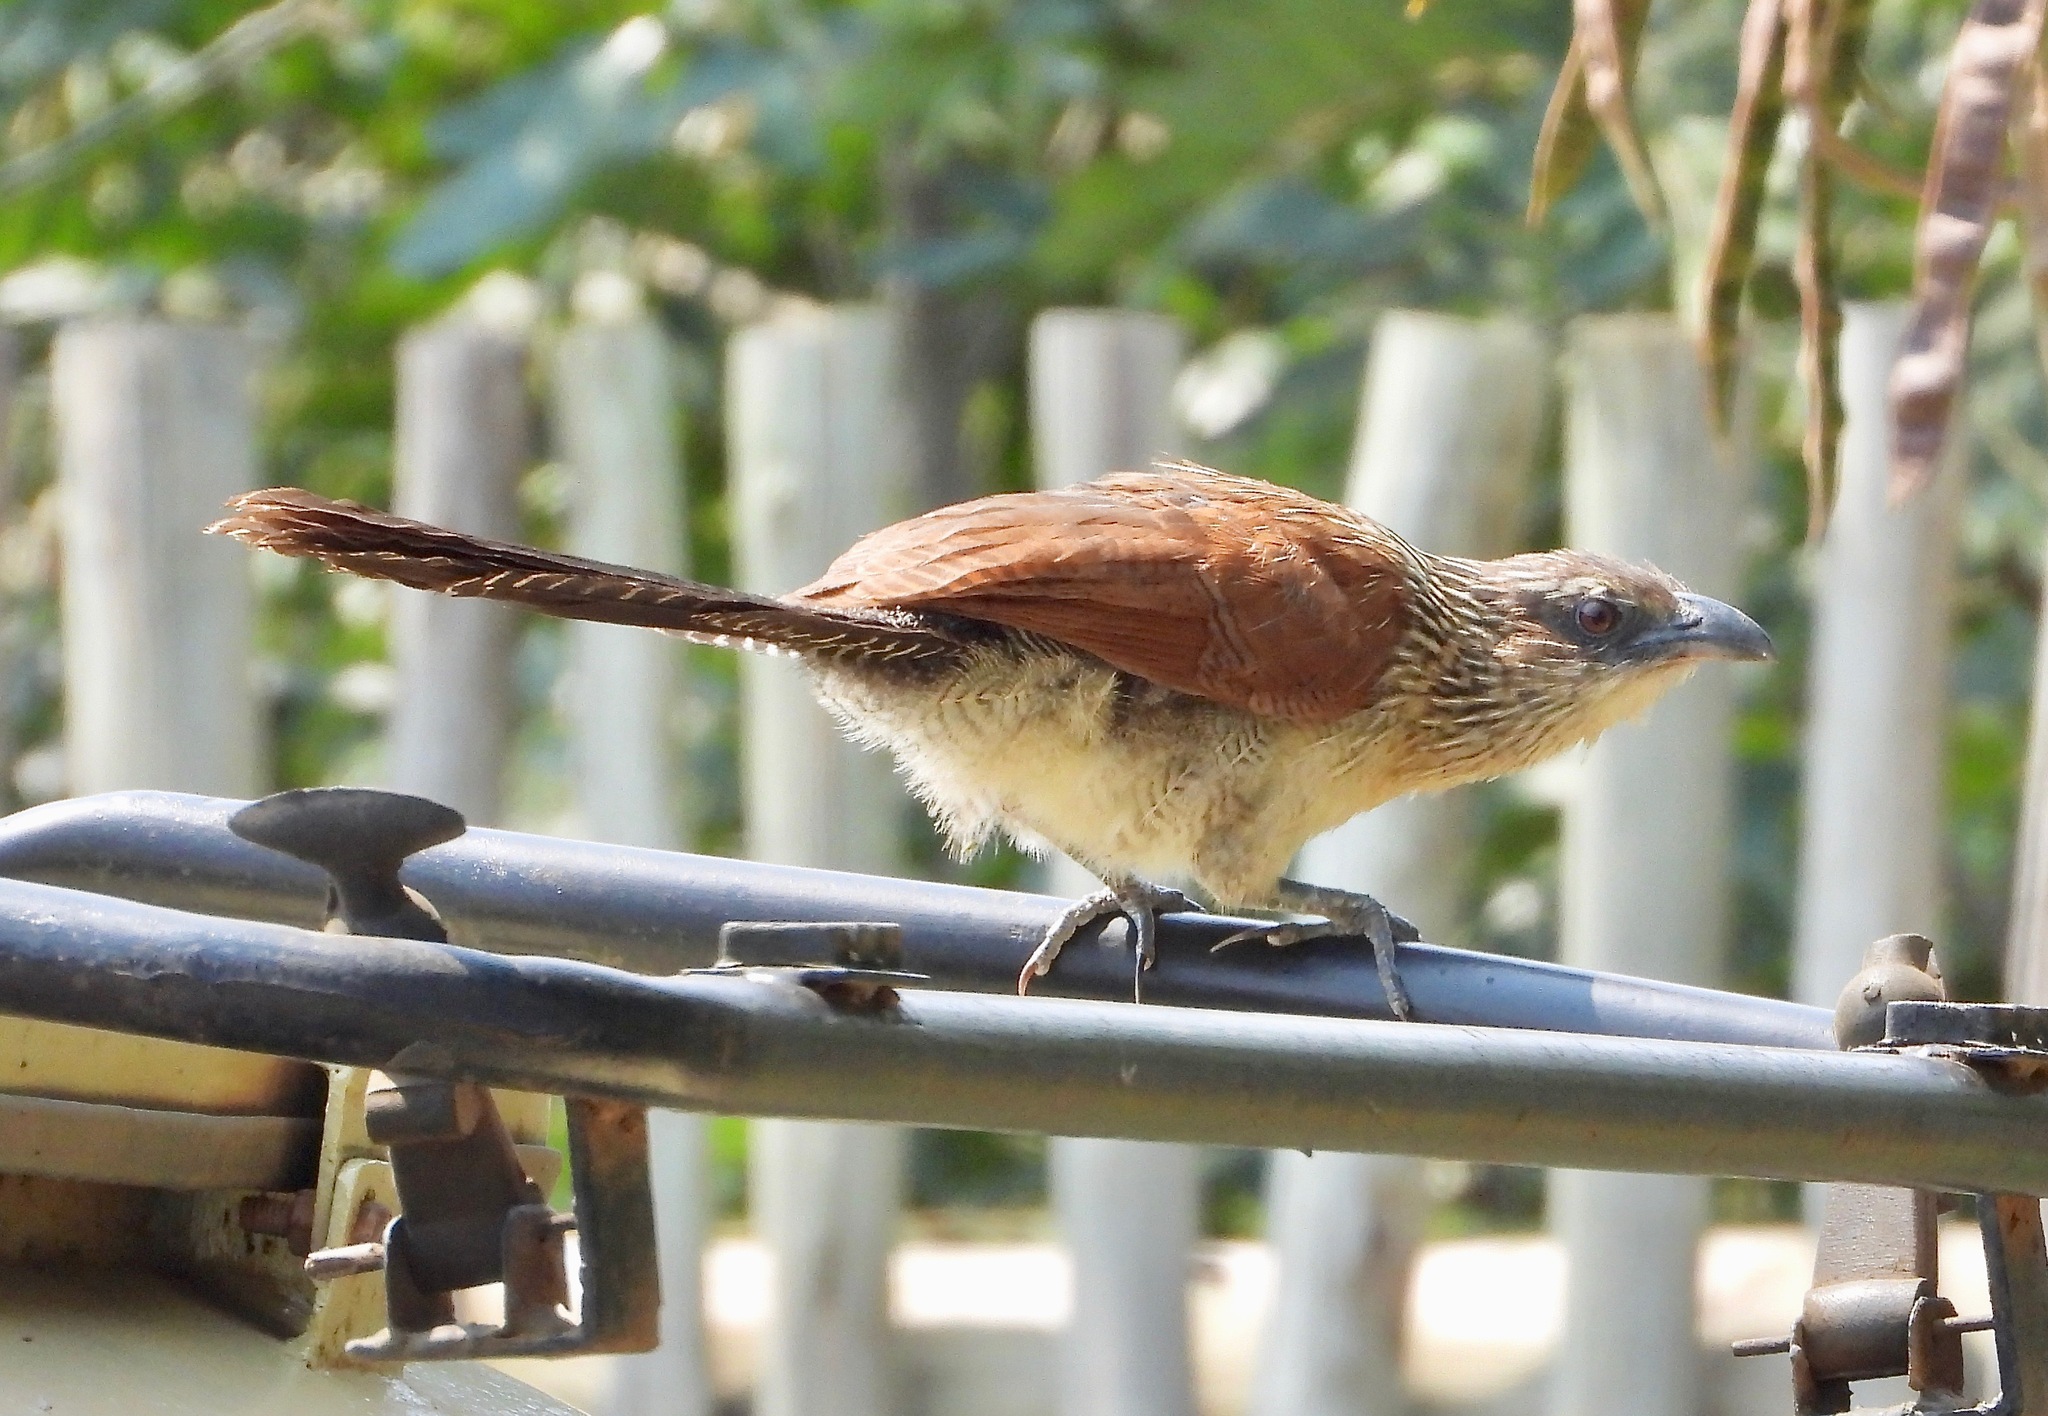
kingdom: Animalia
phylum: Chordata
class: Aves
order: Cuculiformes
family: Cuculidae
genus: Centropus
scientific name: Centropus superciliosus
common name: White-browed coucal
